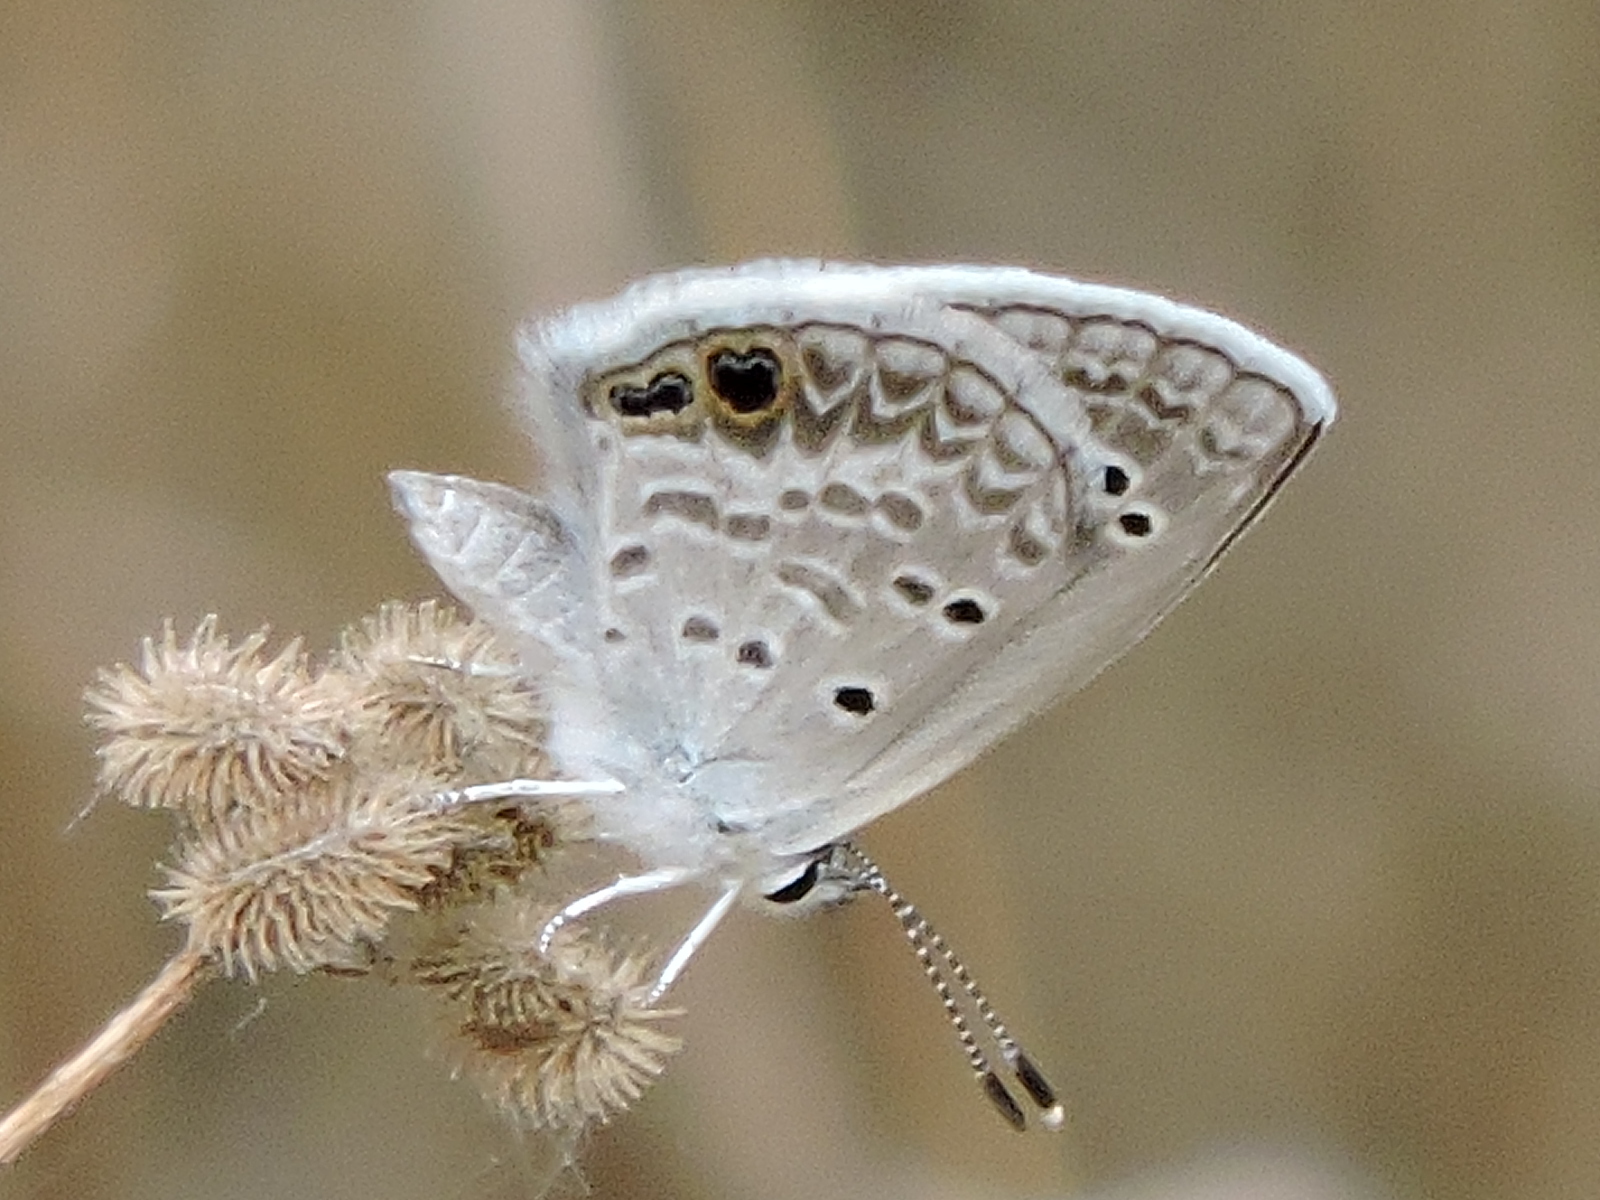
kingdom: Animalia
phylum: Arthropoda
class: Insecta
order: Lepidoptera
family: Lycaenidae
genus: Echinargus
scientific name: Echinargus isola
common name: Reakirt's blue
